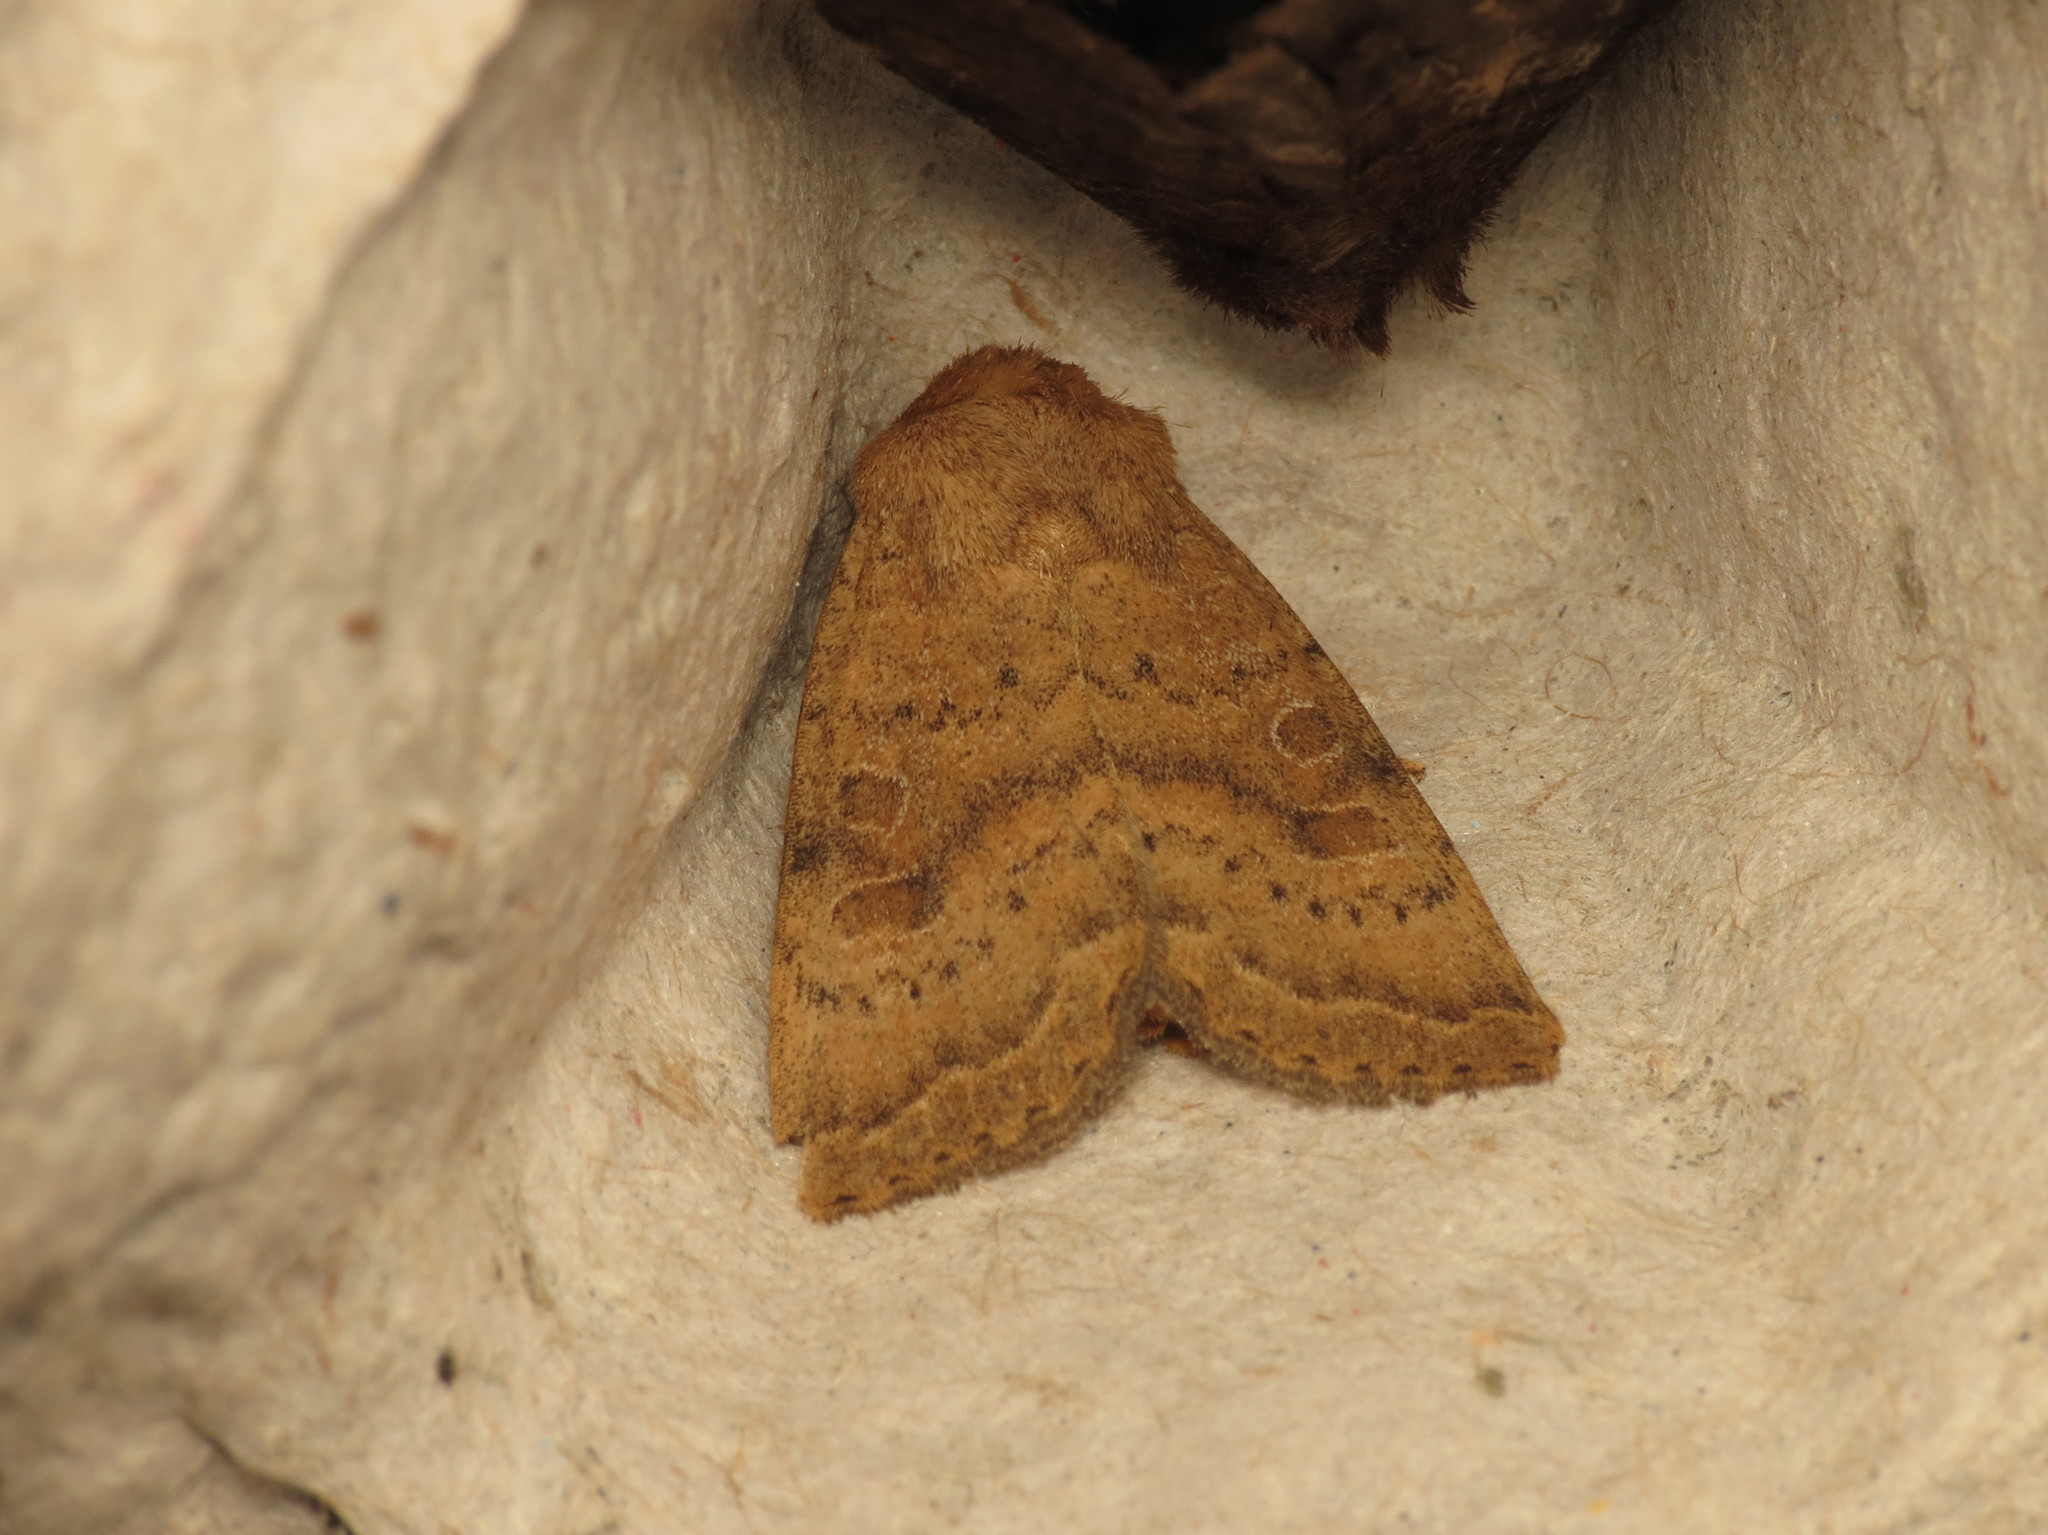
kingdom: Animalia
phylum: Arthropoda
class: Insecta
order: Lepidoptera
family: Noctuidae
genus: Hoplodrina
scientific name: Hoplodrina octogenaria
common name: Uncertain
